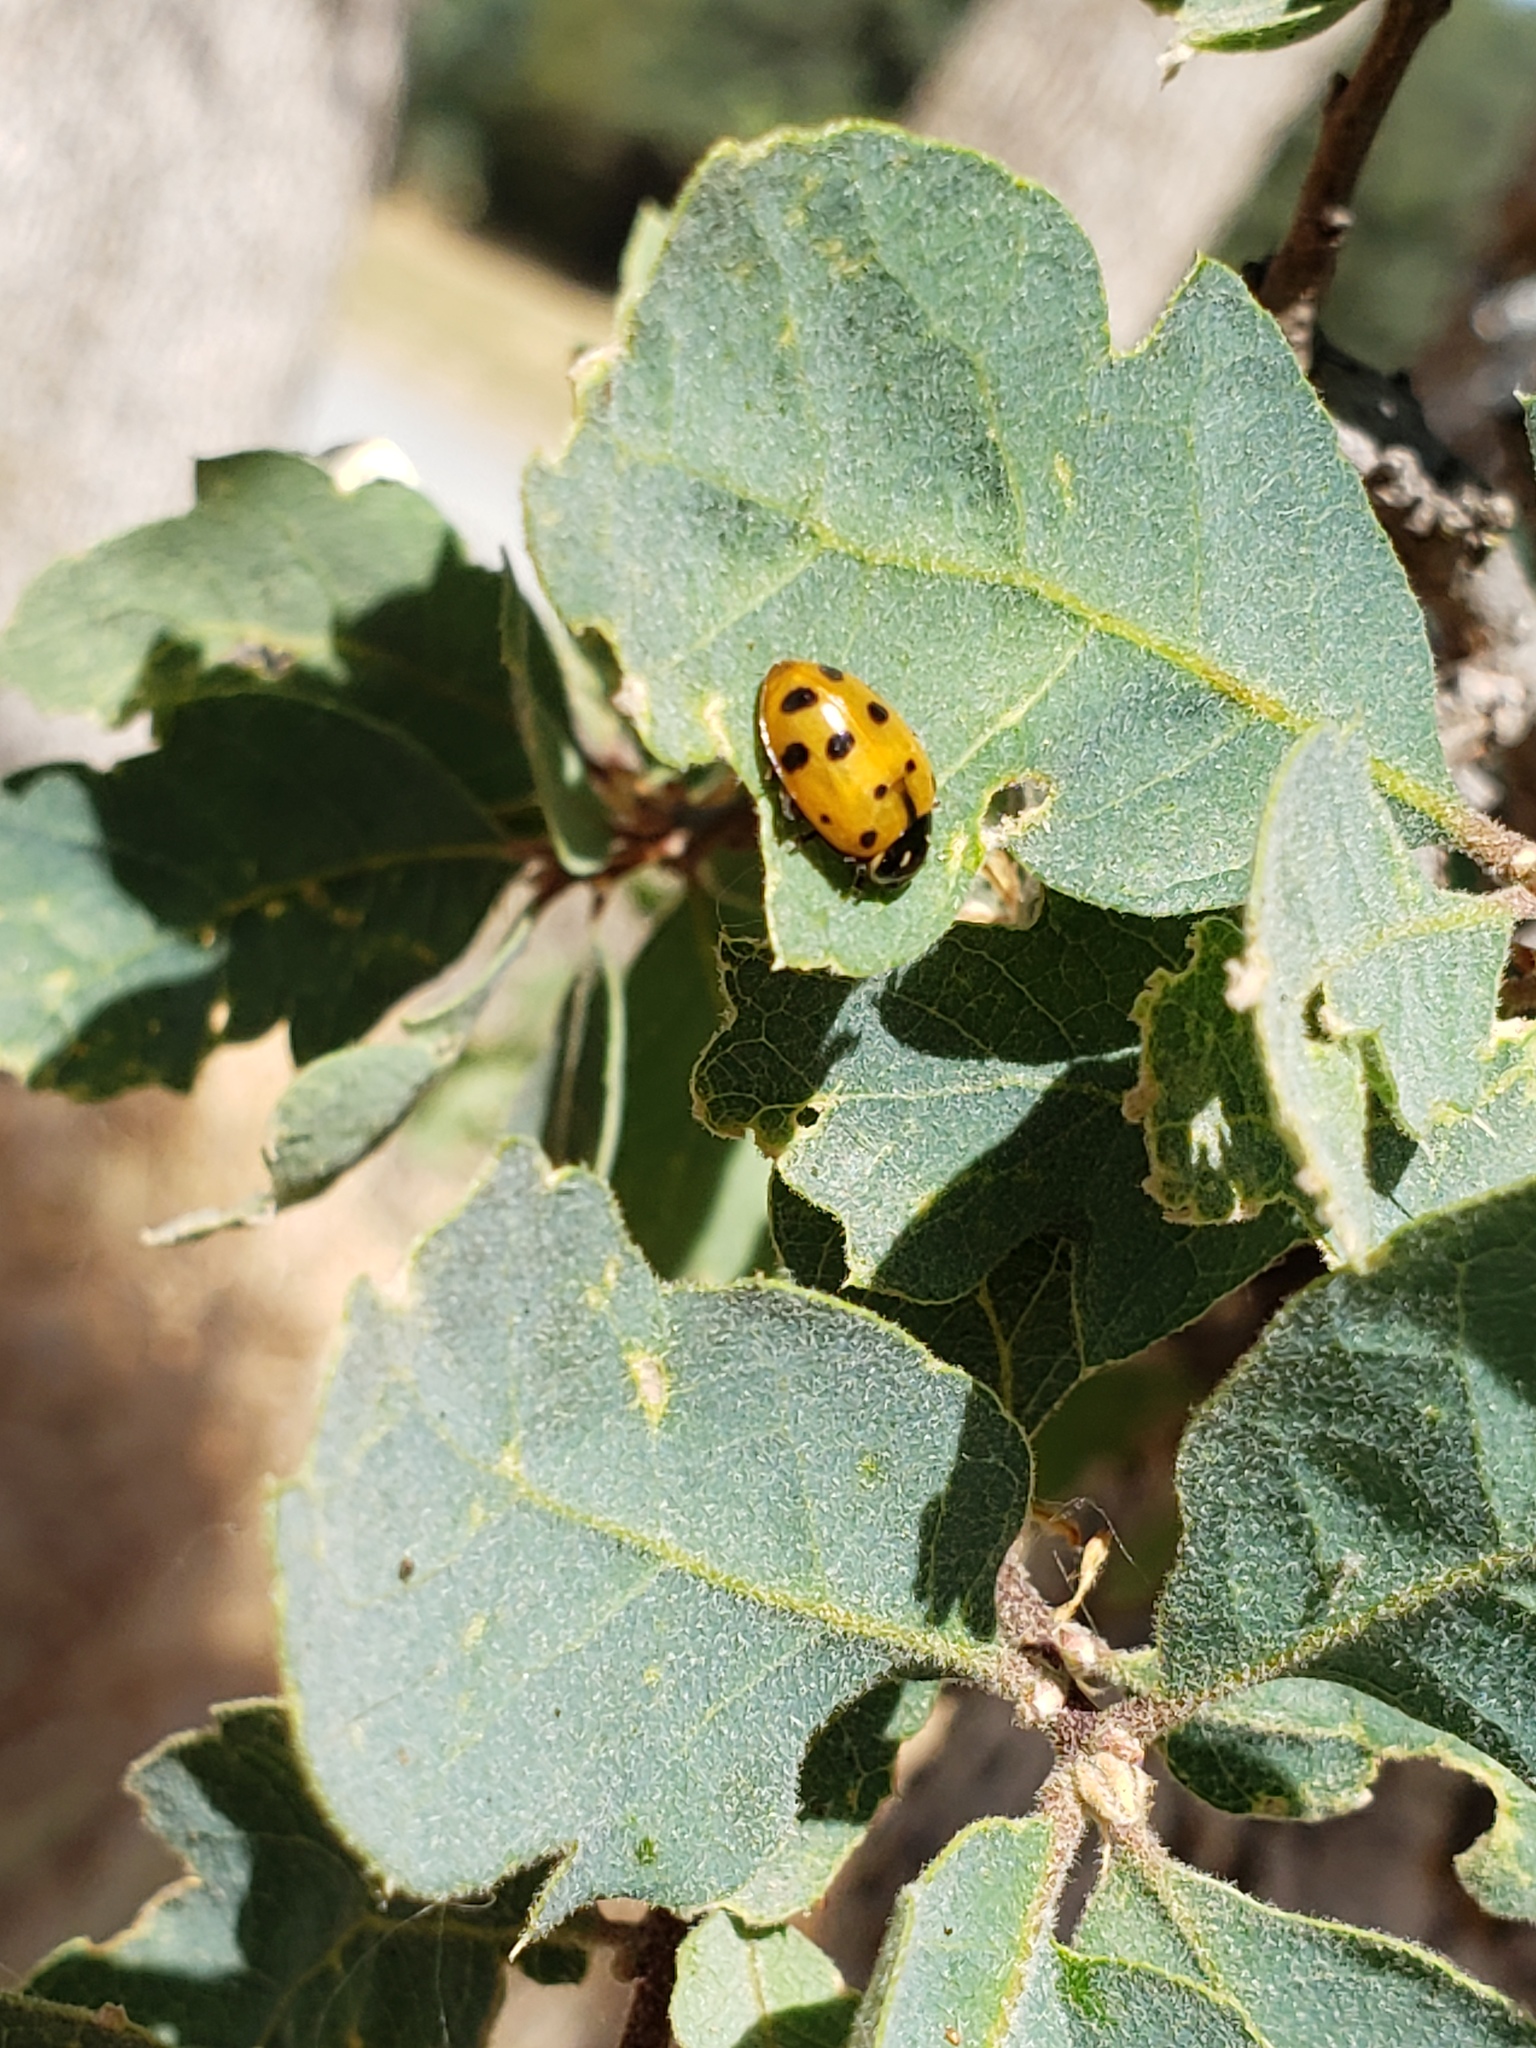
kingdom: Animalia
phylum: Arthropoda
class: Insecta
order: Coleoptera
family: Coccinellidae
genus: Hippodamia
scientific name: Hippodamia convergens
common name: Convergent lady beetle
